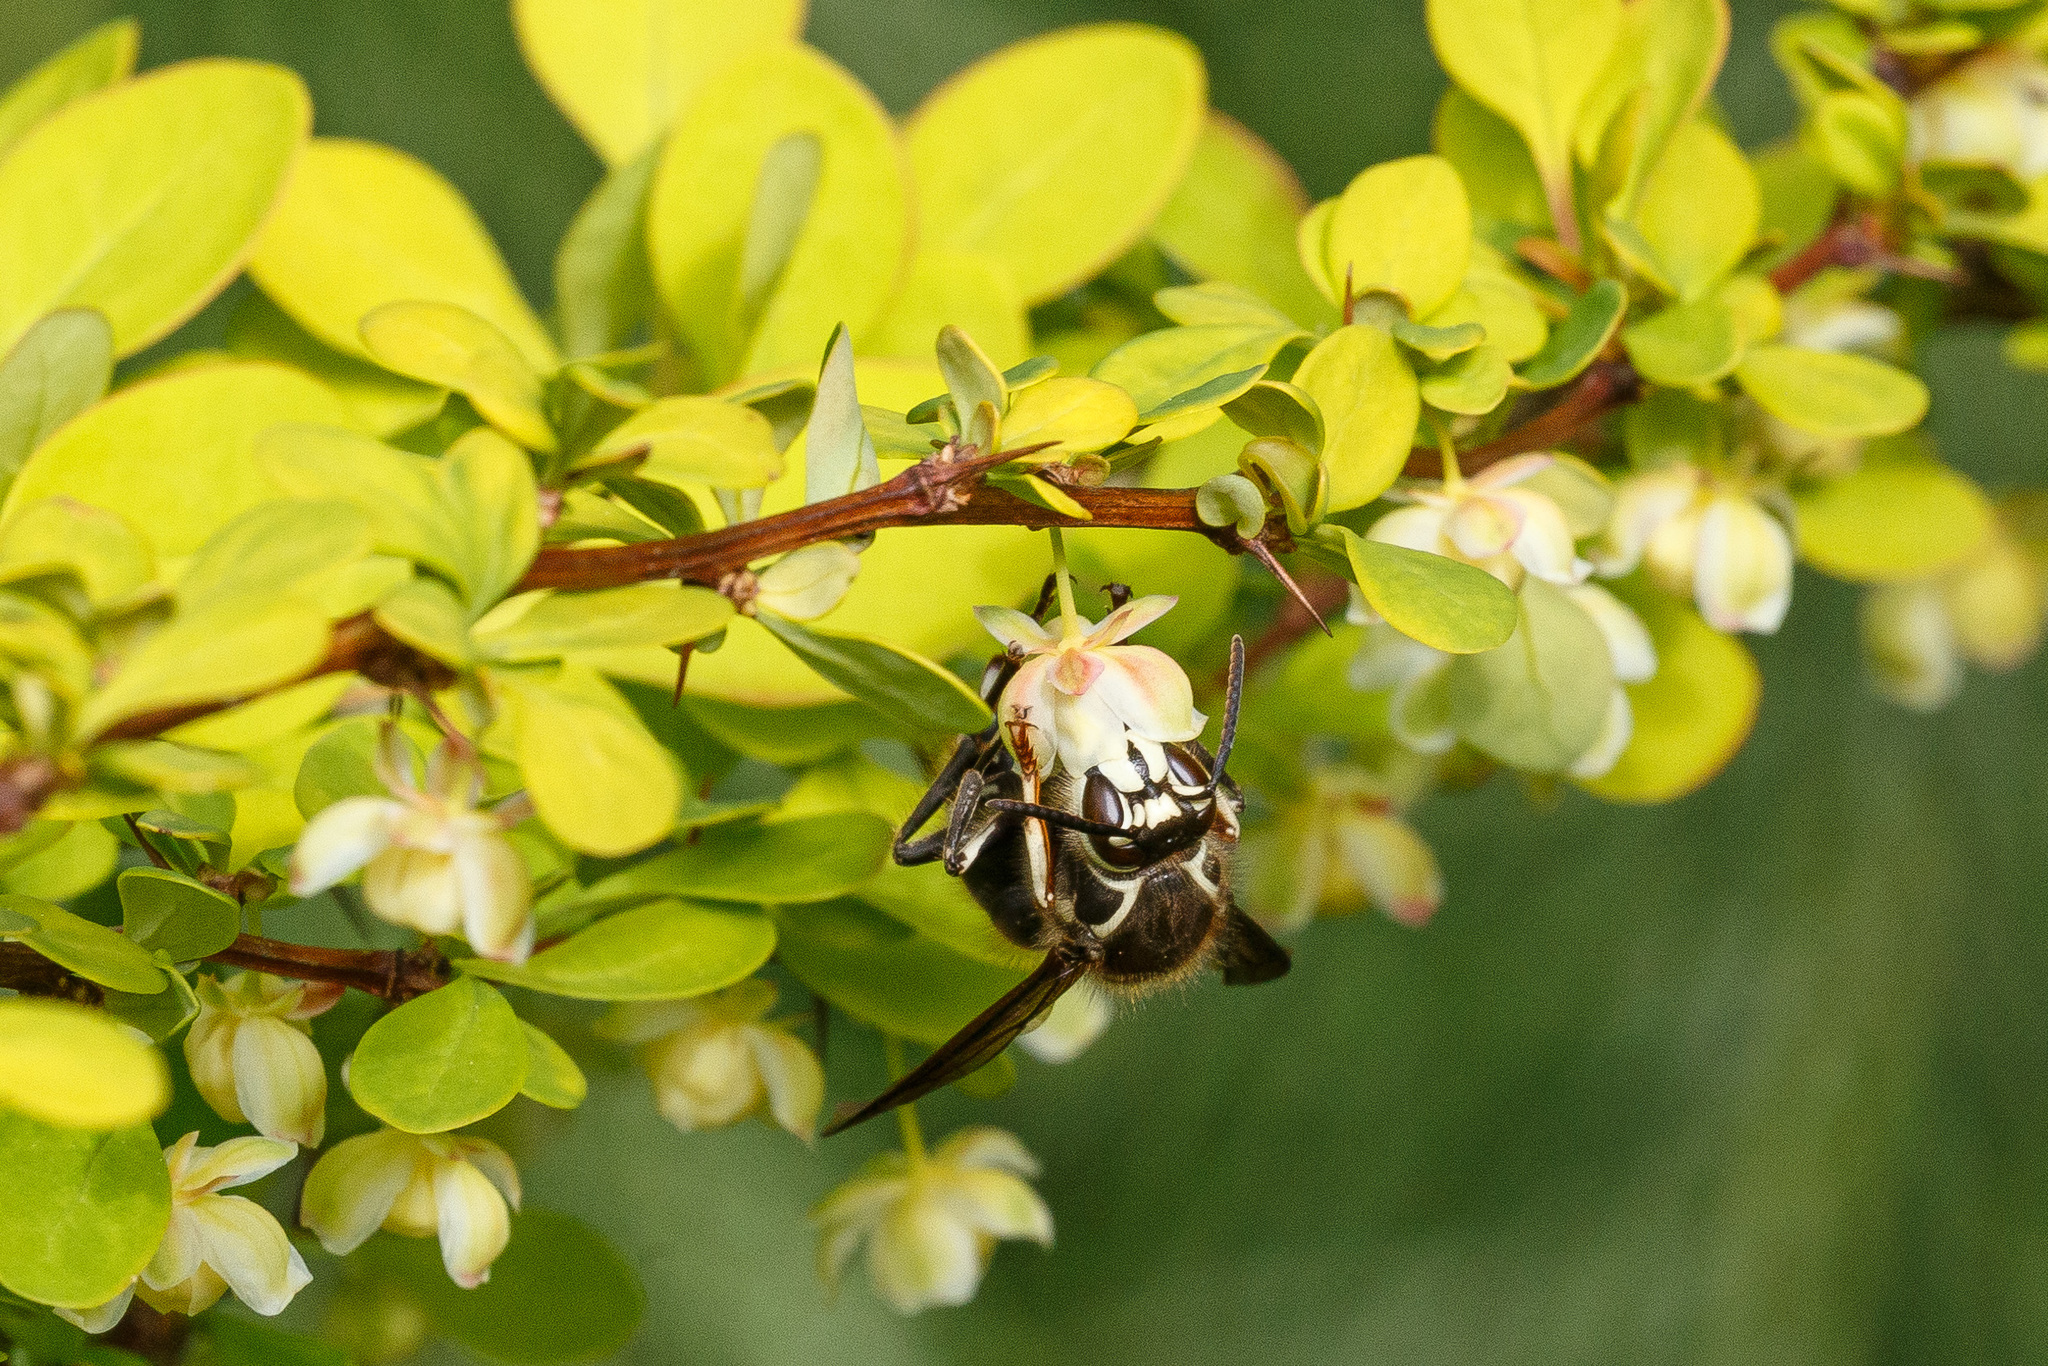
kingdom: Animalia
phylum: Arthropoda
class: Insecta
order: Hymenoptera
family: Vespidae
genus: Dolichovespula
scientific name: Dolichovespula maculata
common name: Bald-faced hornet
